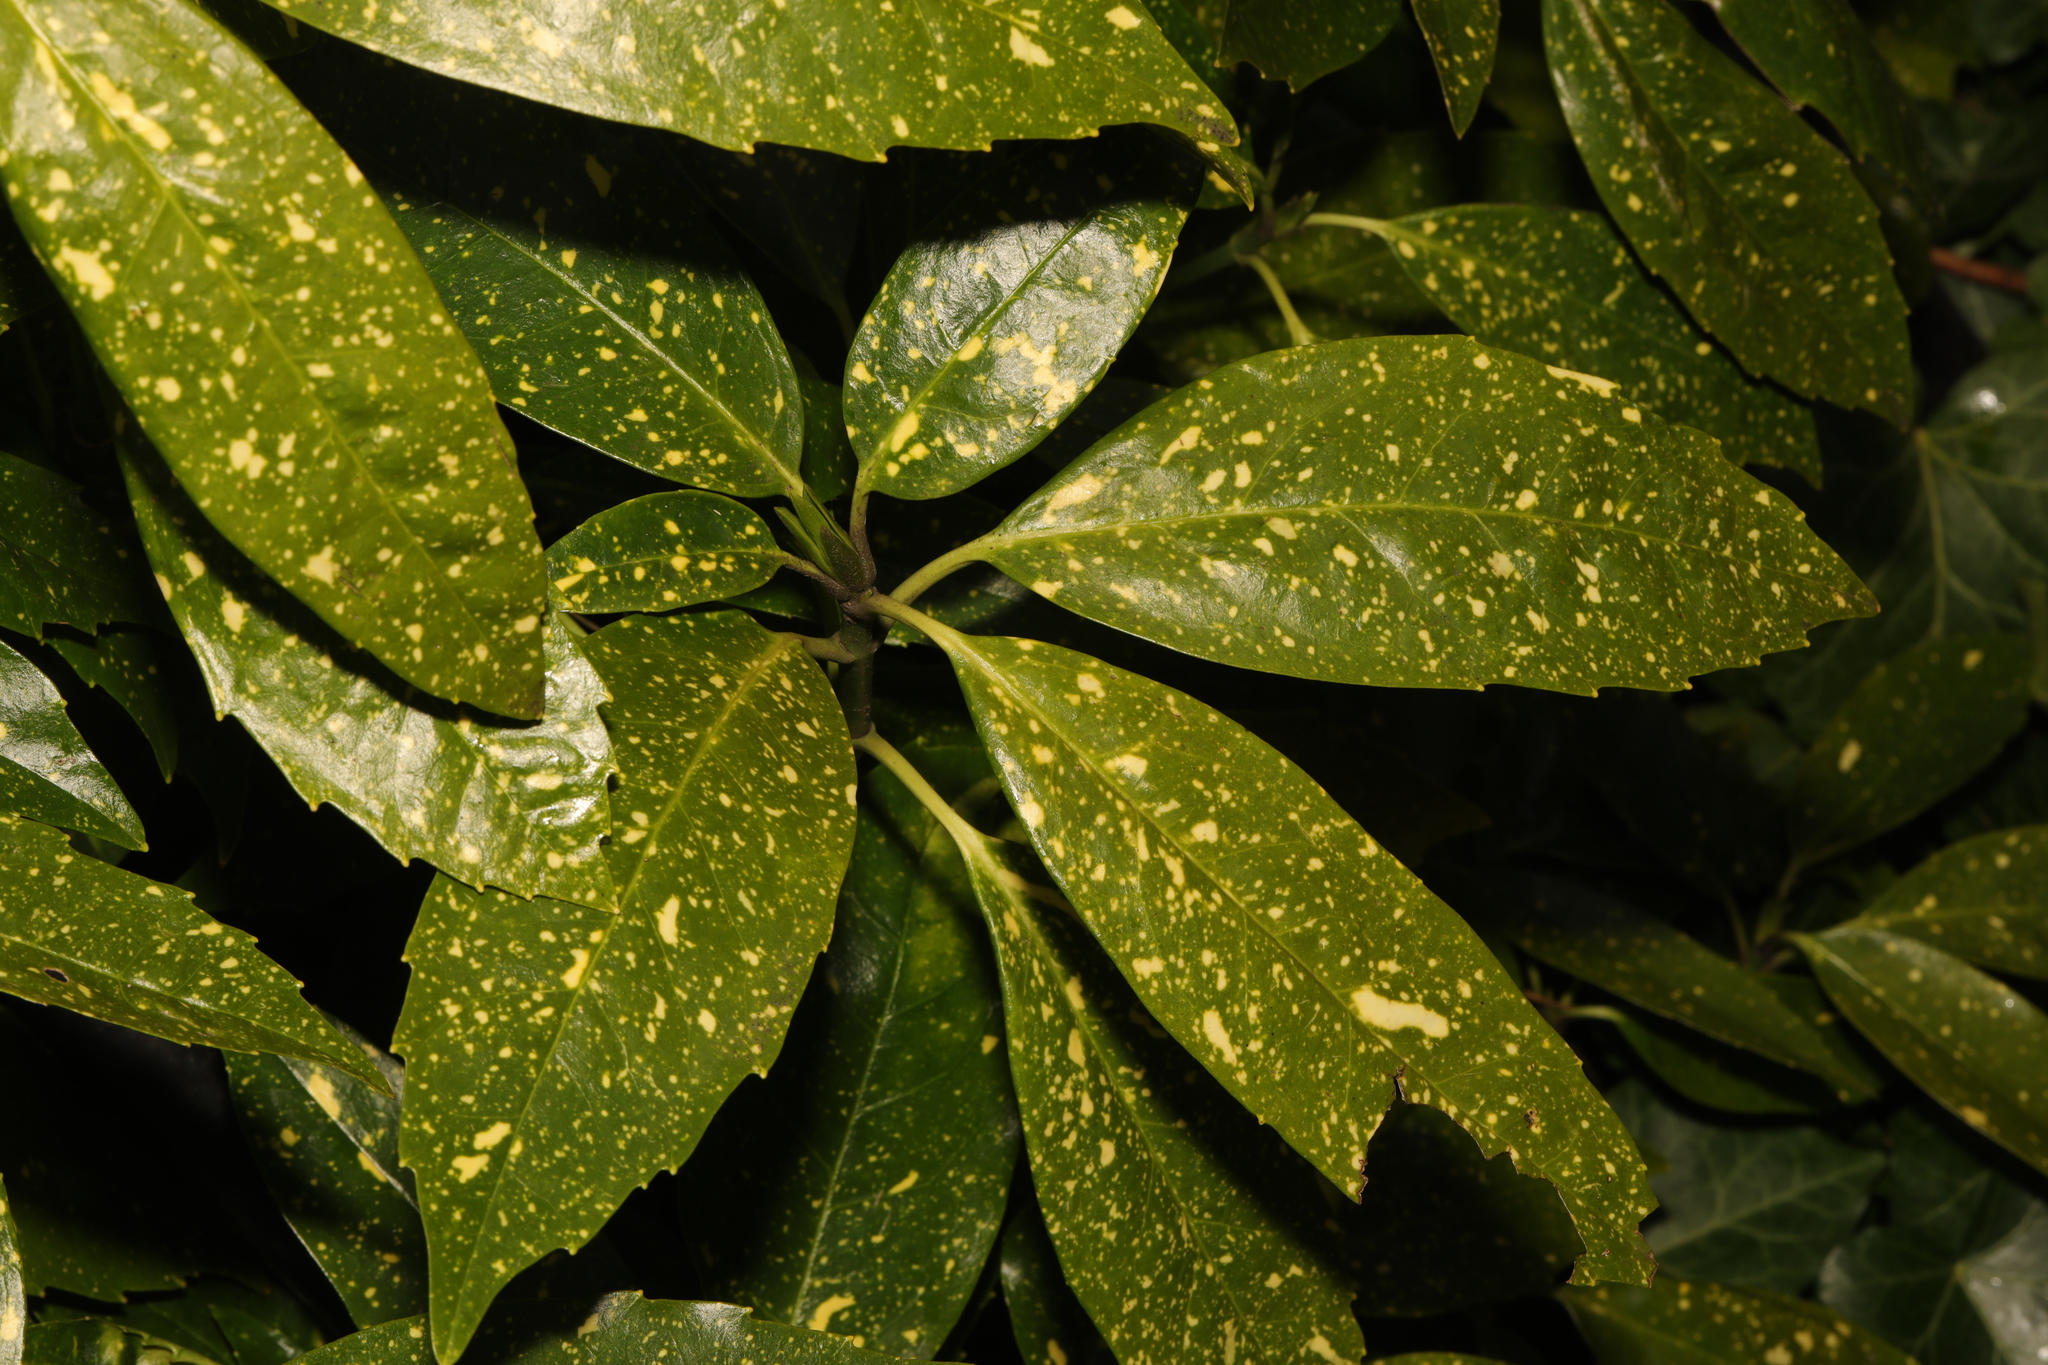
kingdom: Plantae
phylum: Tracheophyta
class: Magnoliopsida
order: Garryales
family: Garryaceae
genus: Aucuba
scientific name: Aucuba japonica
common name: Spotted-laurel
